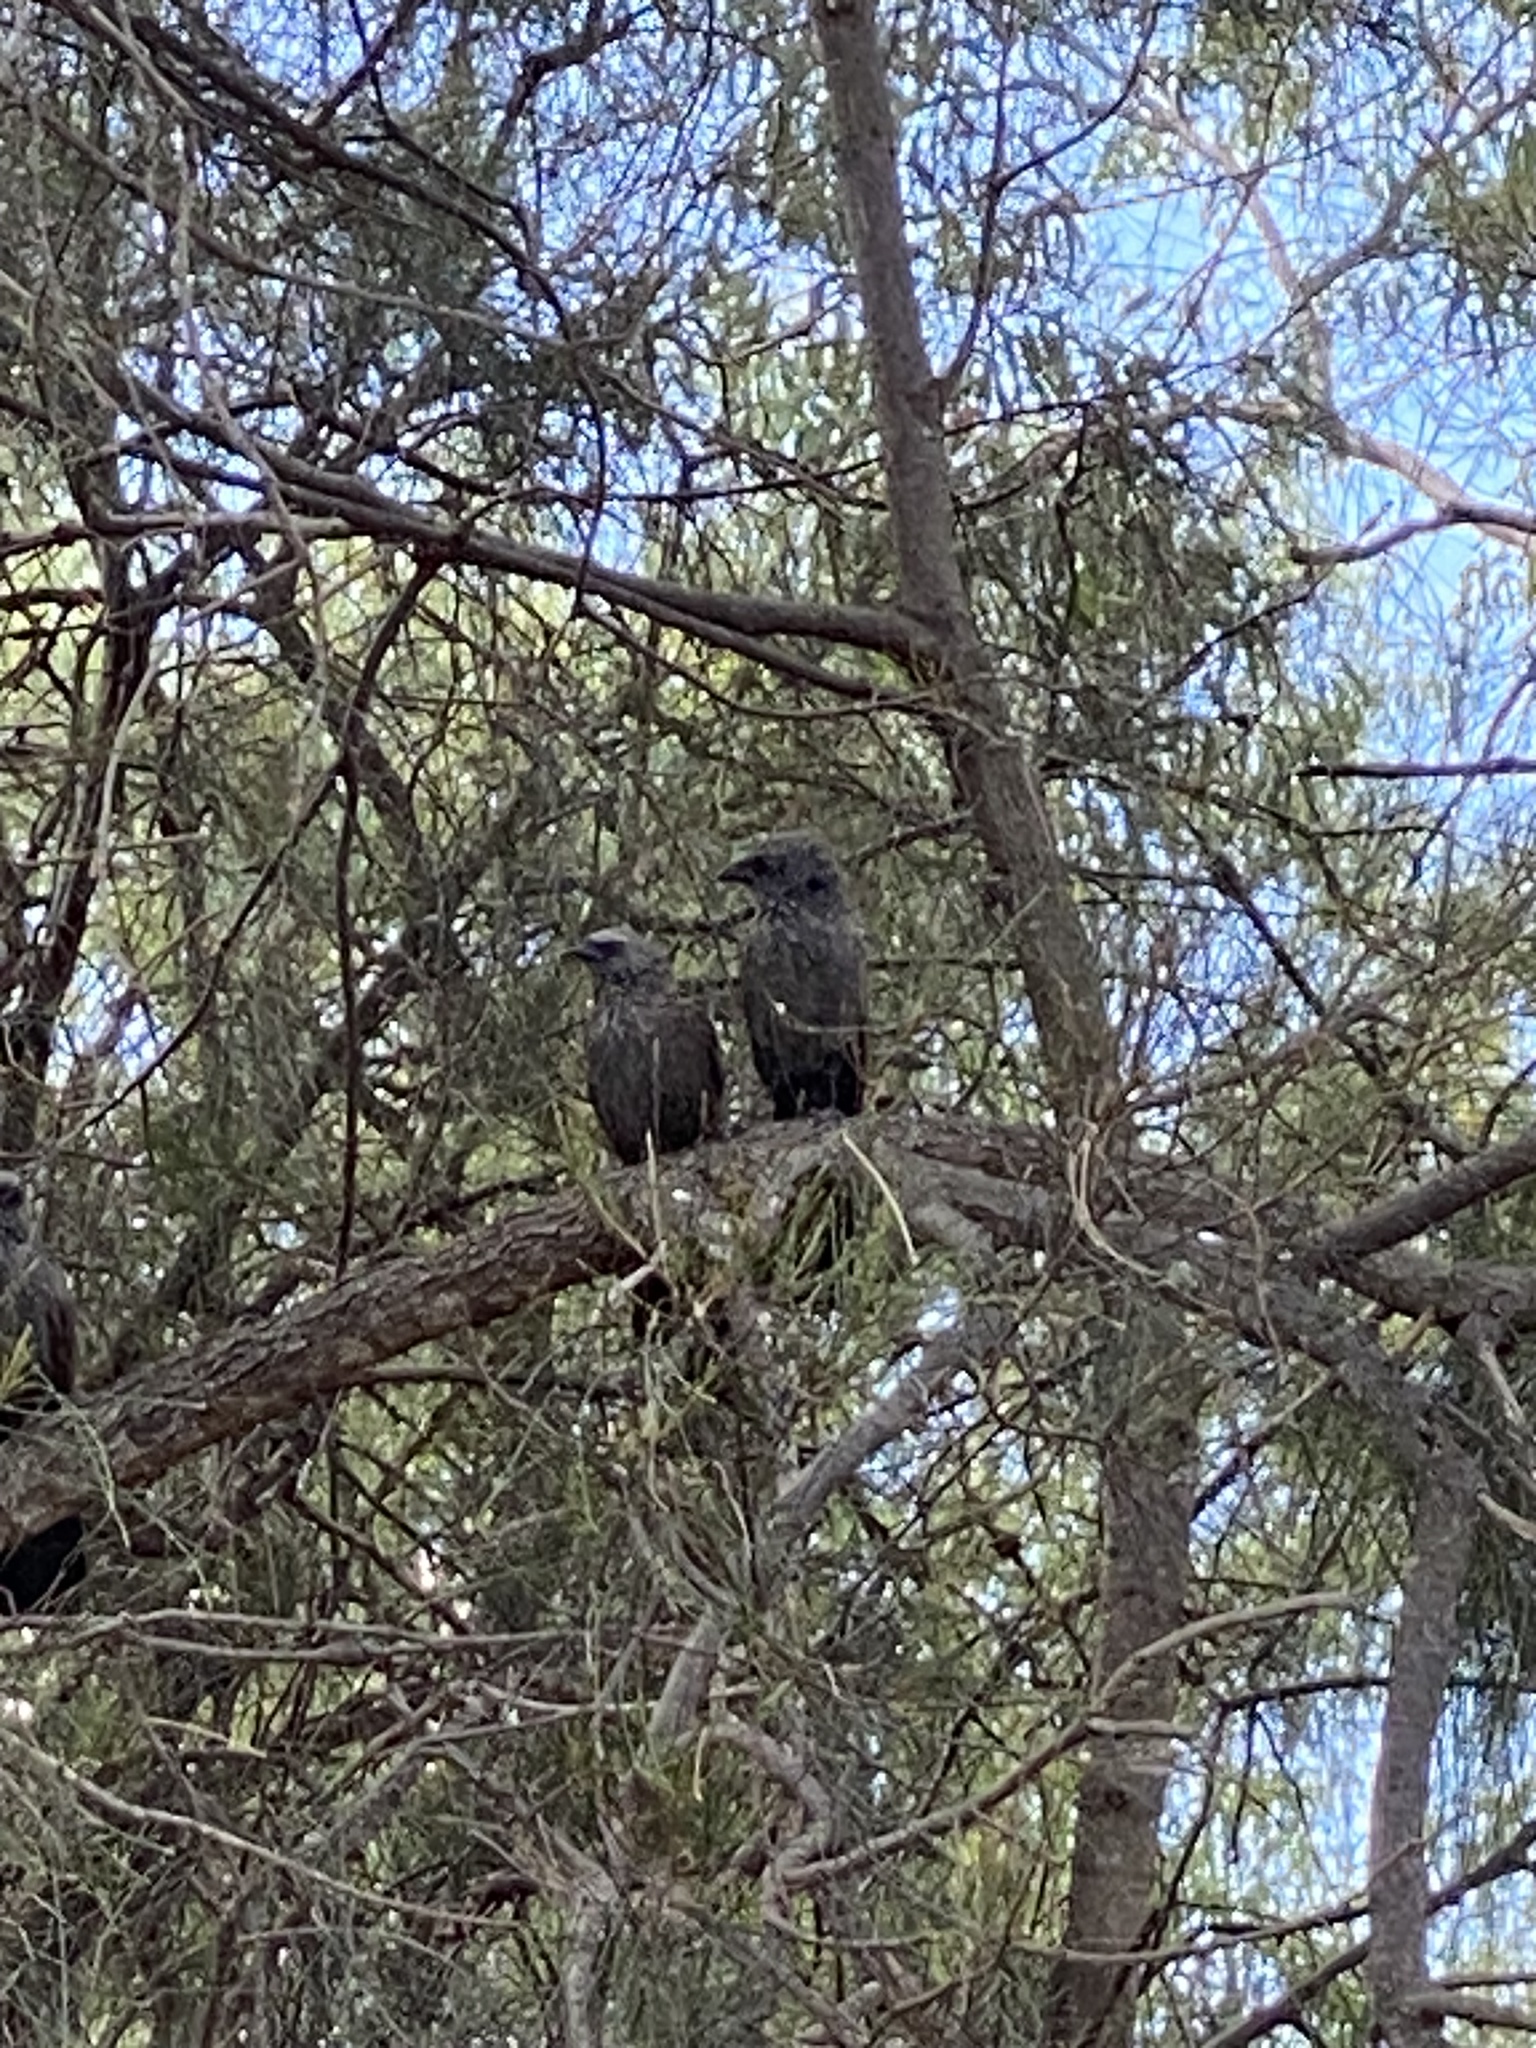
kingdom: Animalia
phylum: Chordata
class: Aves
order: Passeriformes
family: Corcoracidae
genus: Struthidea
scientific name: Struthidea cinerea
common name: Apostlebird
